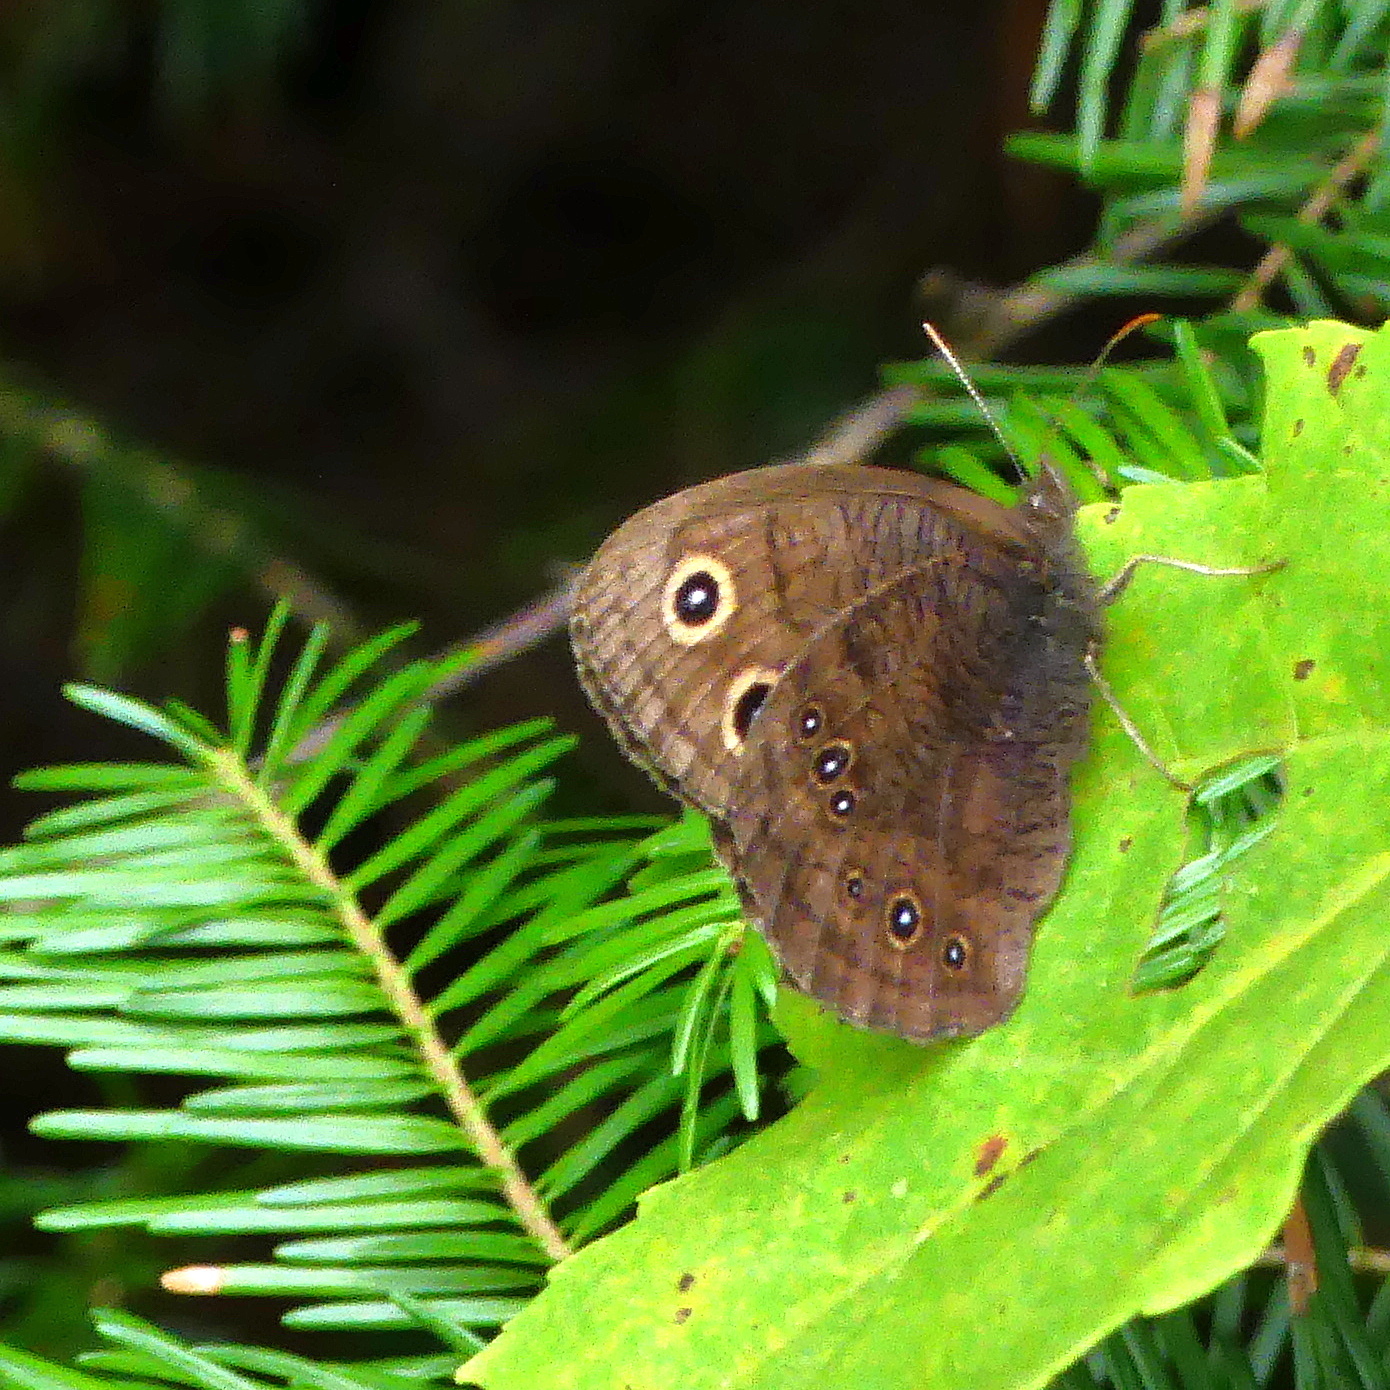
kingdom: Animalia
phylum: Arthropoda
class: Insecta
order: Lepidoptera
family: Nymphalidae
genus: Cercyonis
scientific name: Cercyonis pegala
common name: Common wood-nymph
